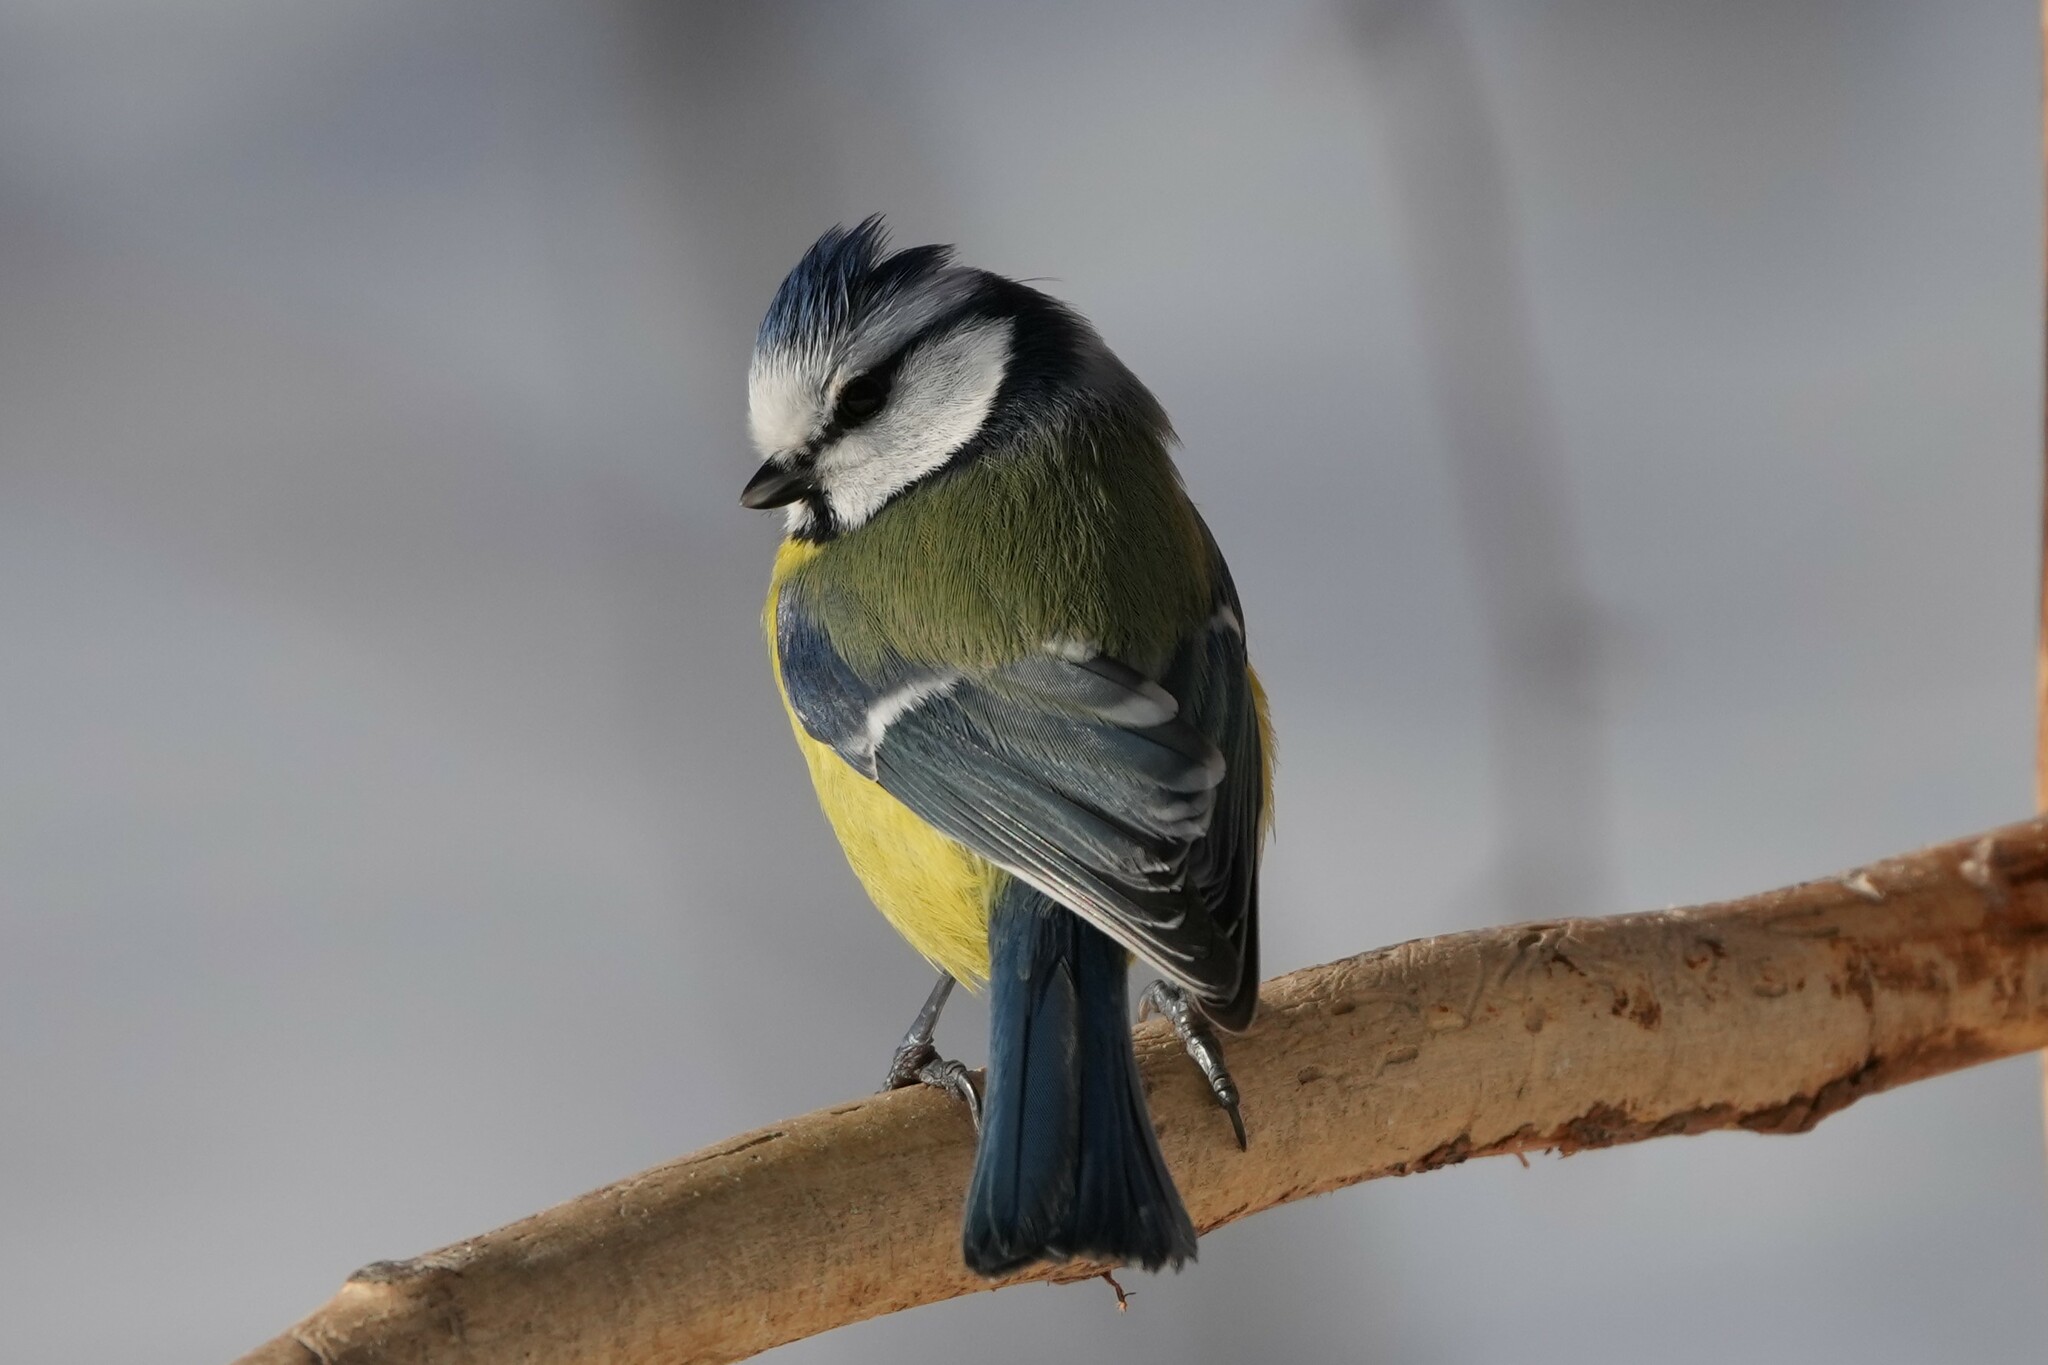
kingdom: Animalia
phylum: Chordata
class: Aves
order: Passeriformes
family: Paridae
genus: Cyanistes
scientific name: Cyanistes caeruleus
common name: Eurasian blue tit
